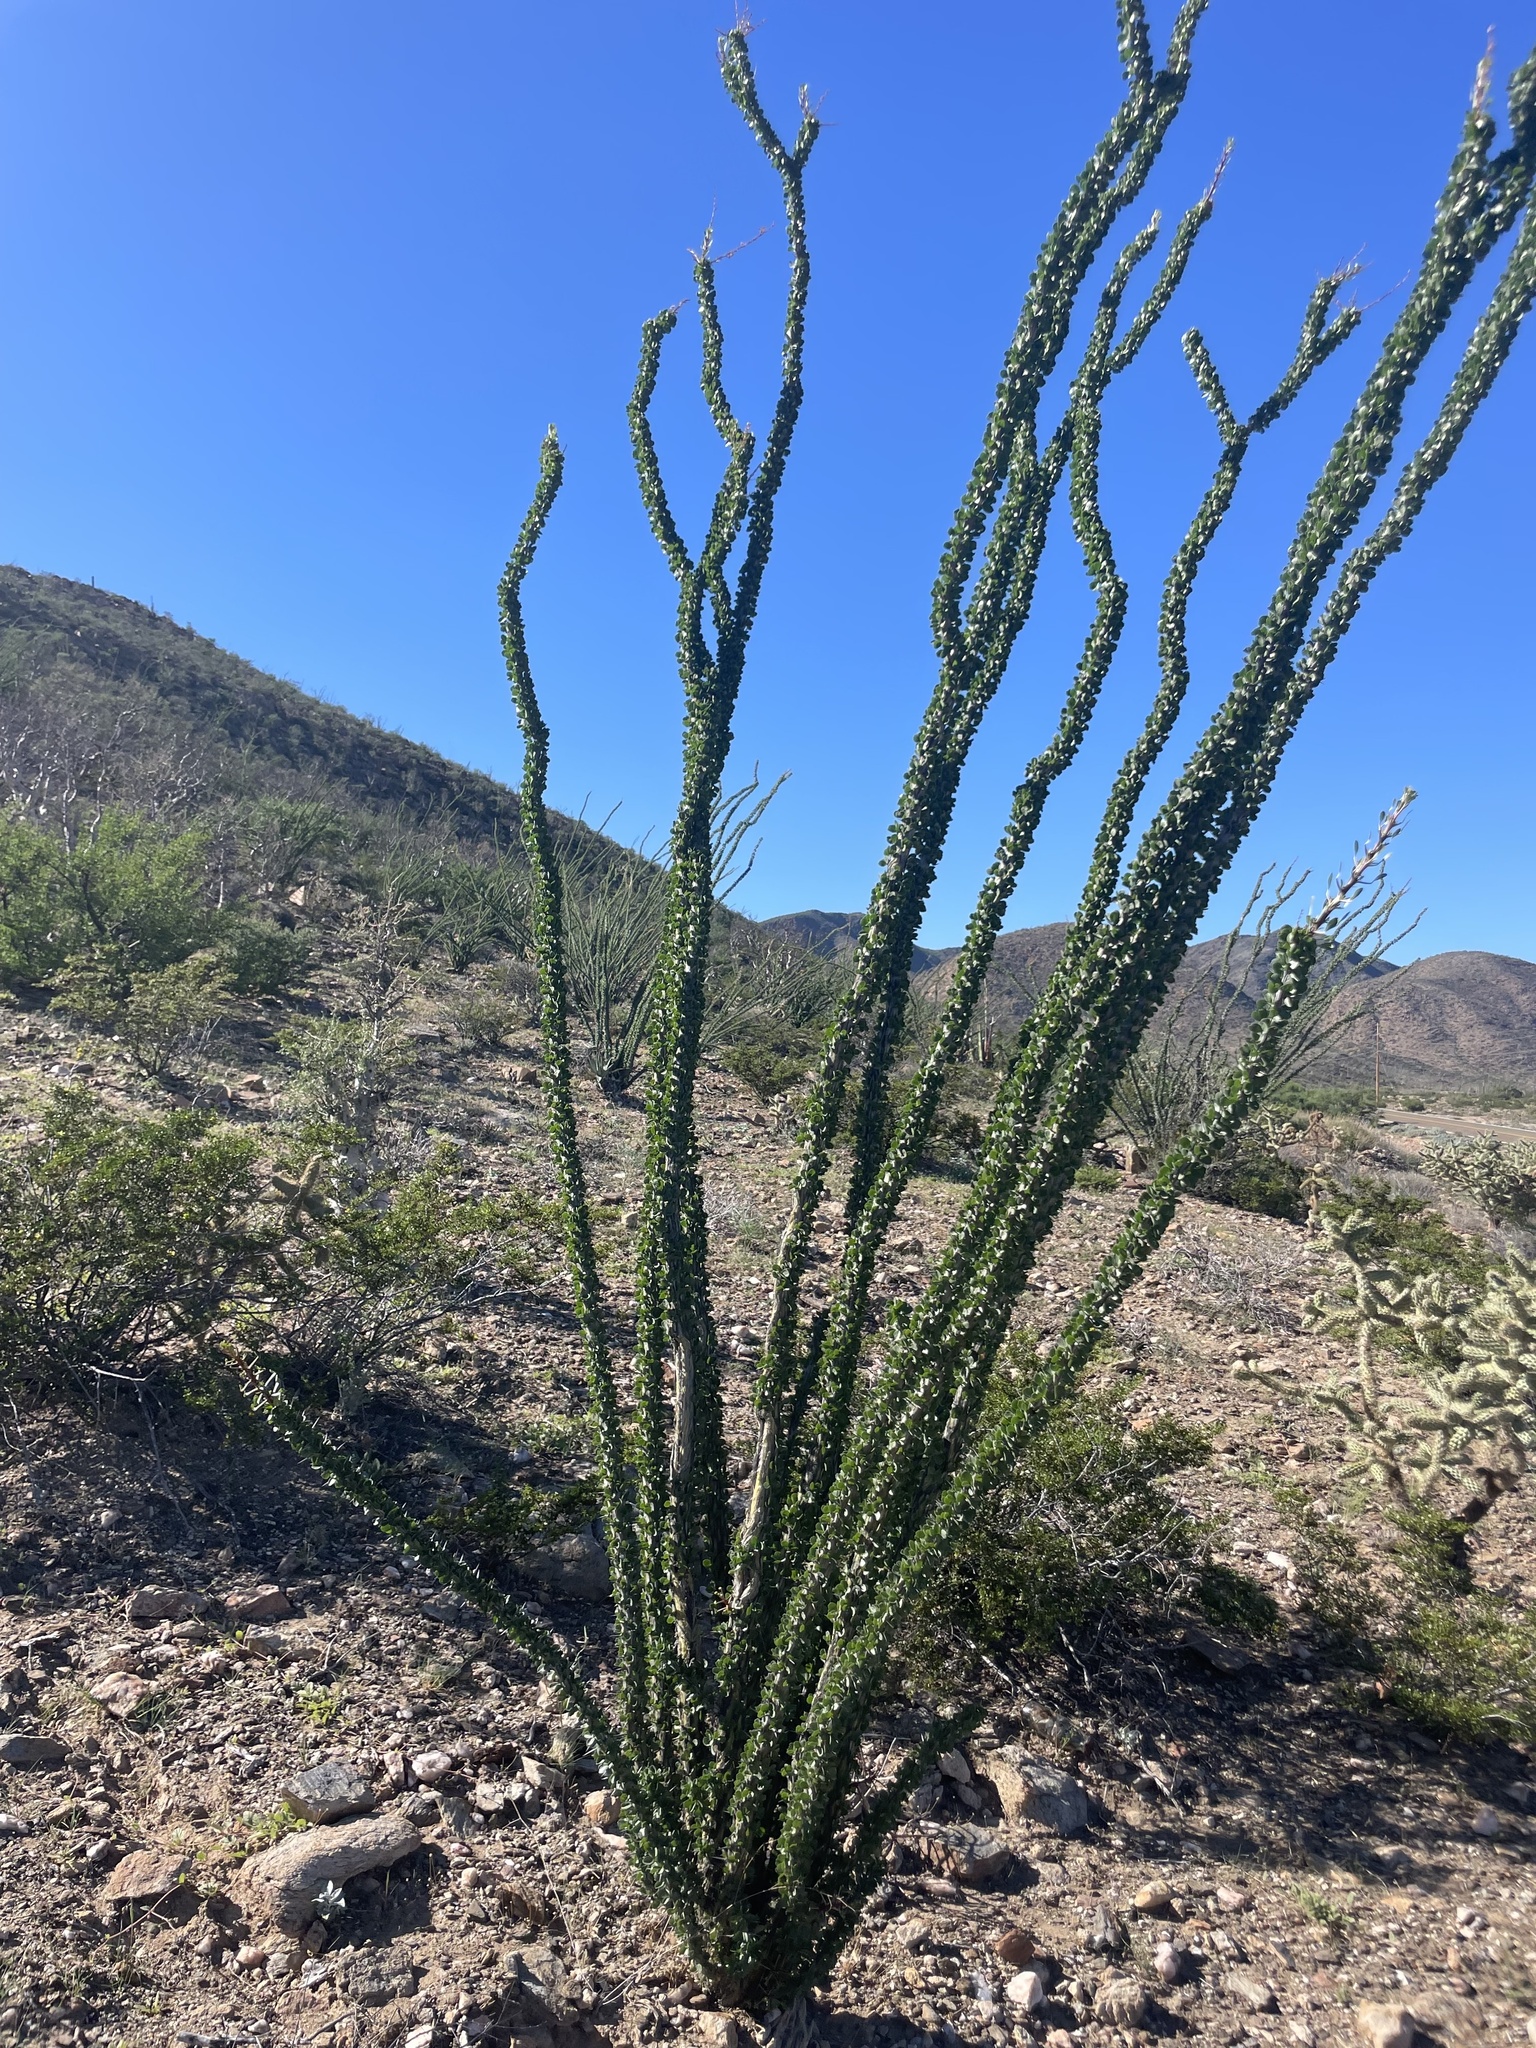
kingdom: Plantae
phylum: Tracheophyta
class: Magnoliopsida
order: Ericales
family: Fouquieriaceae
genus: Fouquieria
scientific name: Fouquieria splendens
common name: Vine-cactus
